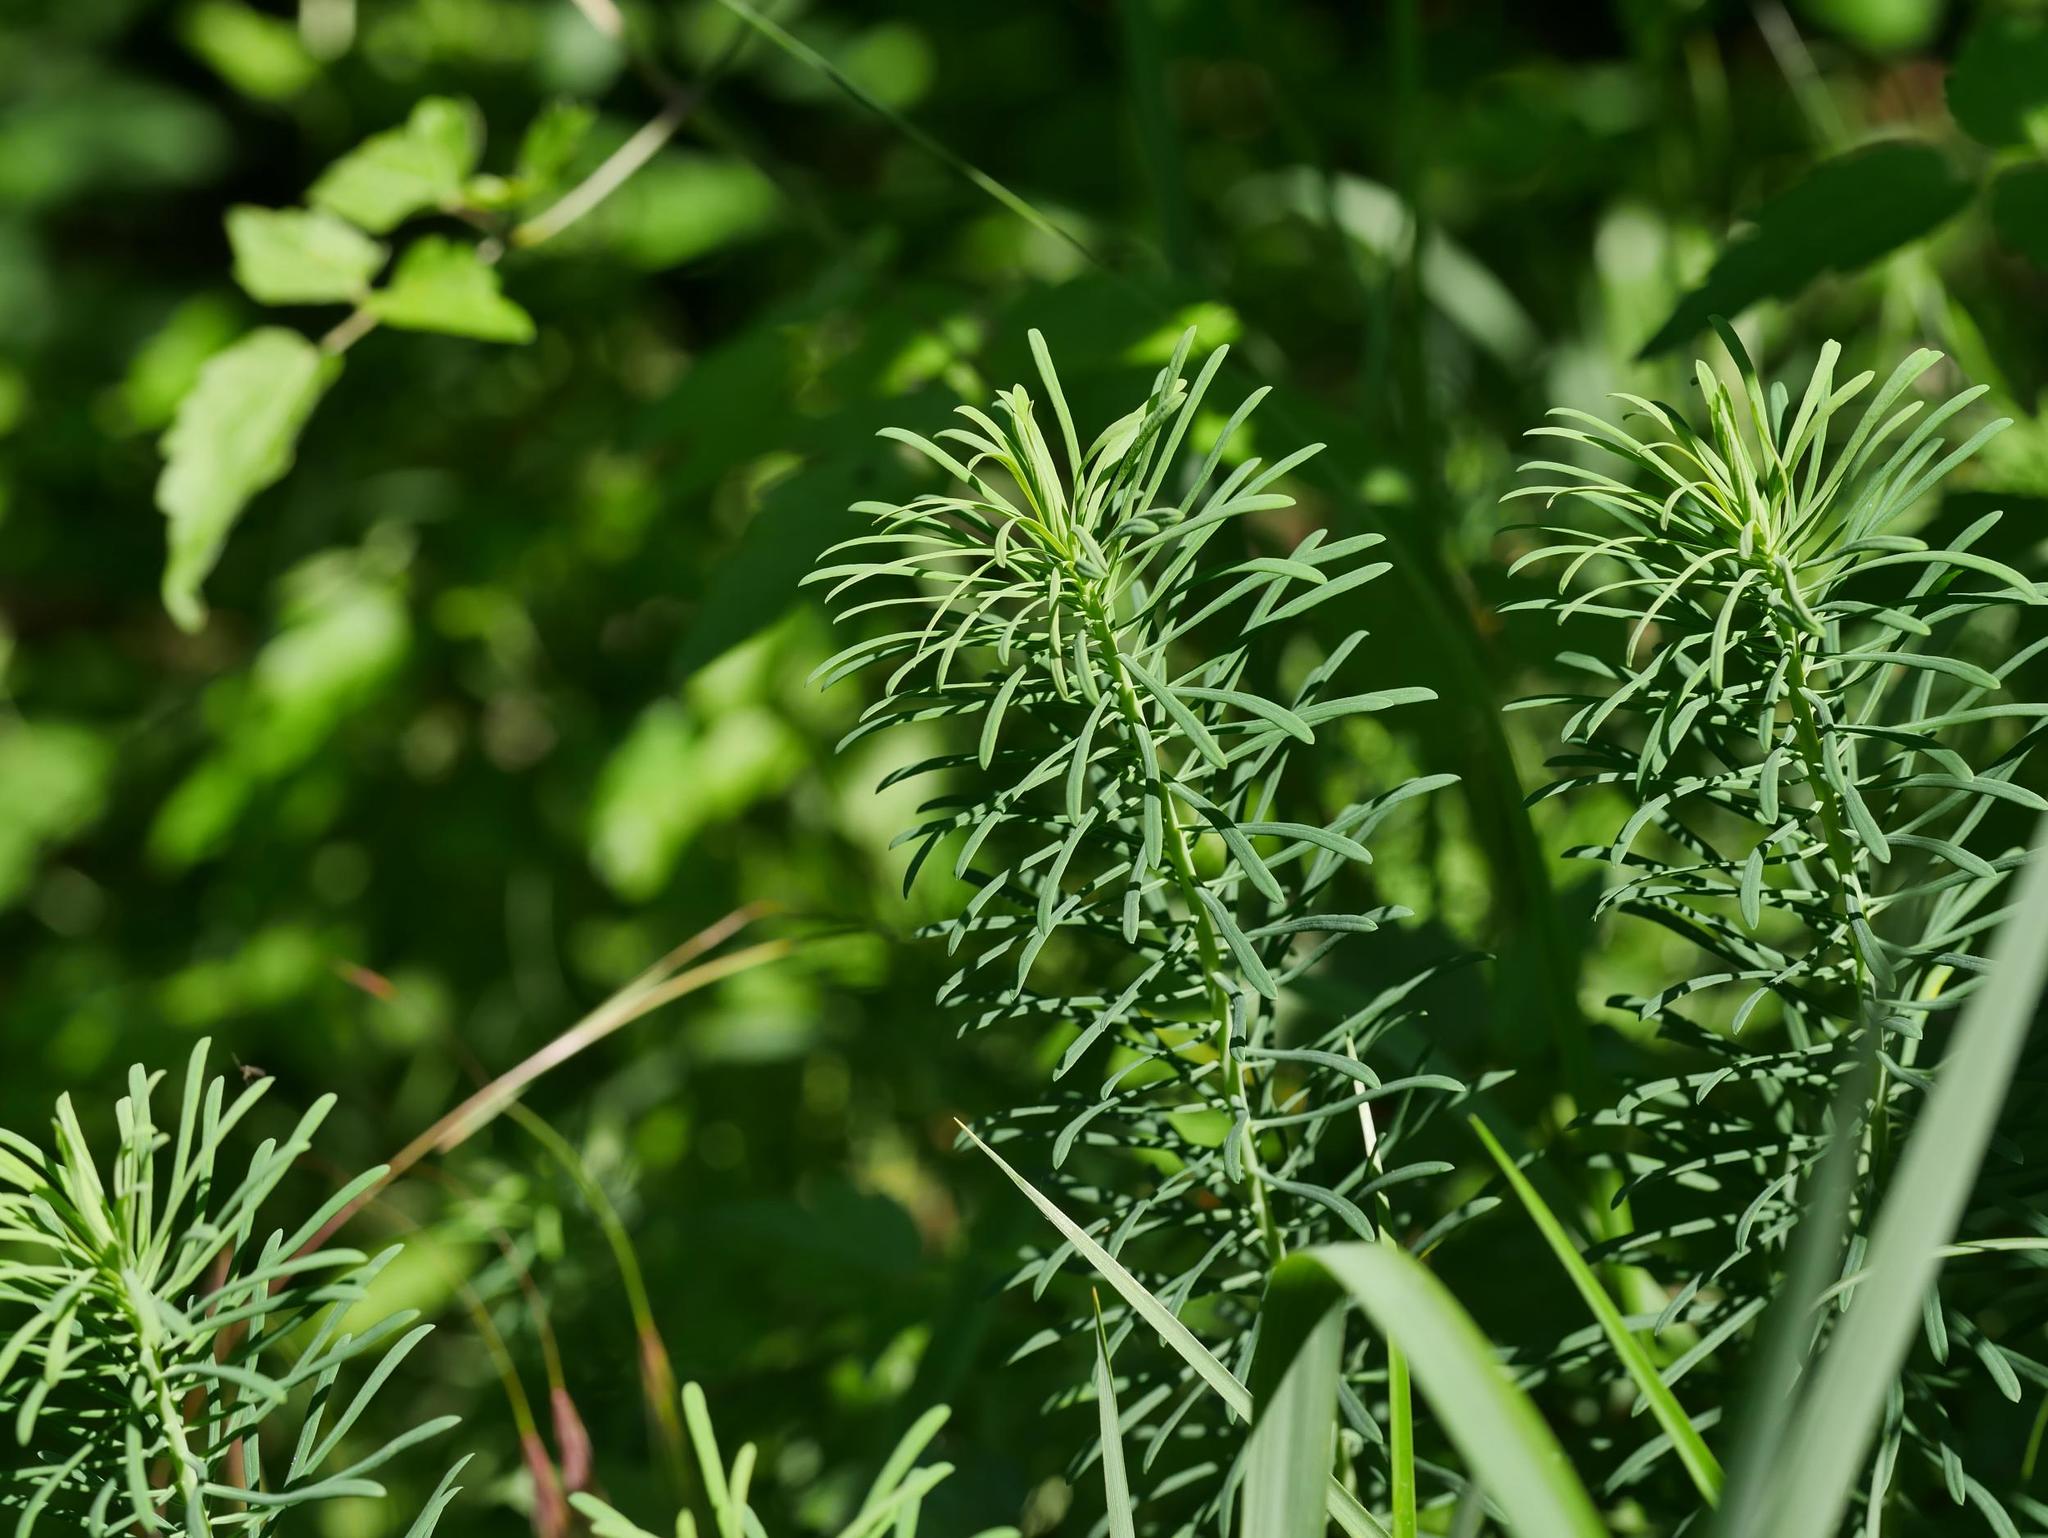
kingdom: Plantae
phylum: Tracheophyta
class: Magnoliopsida
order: Malpighiales
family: Euphorbiaceae
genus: Euphorbia
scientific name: Euphorbia cyparissias
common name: Cypress spurge
